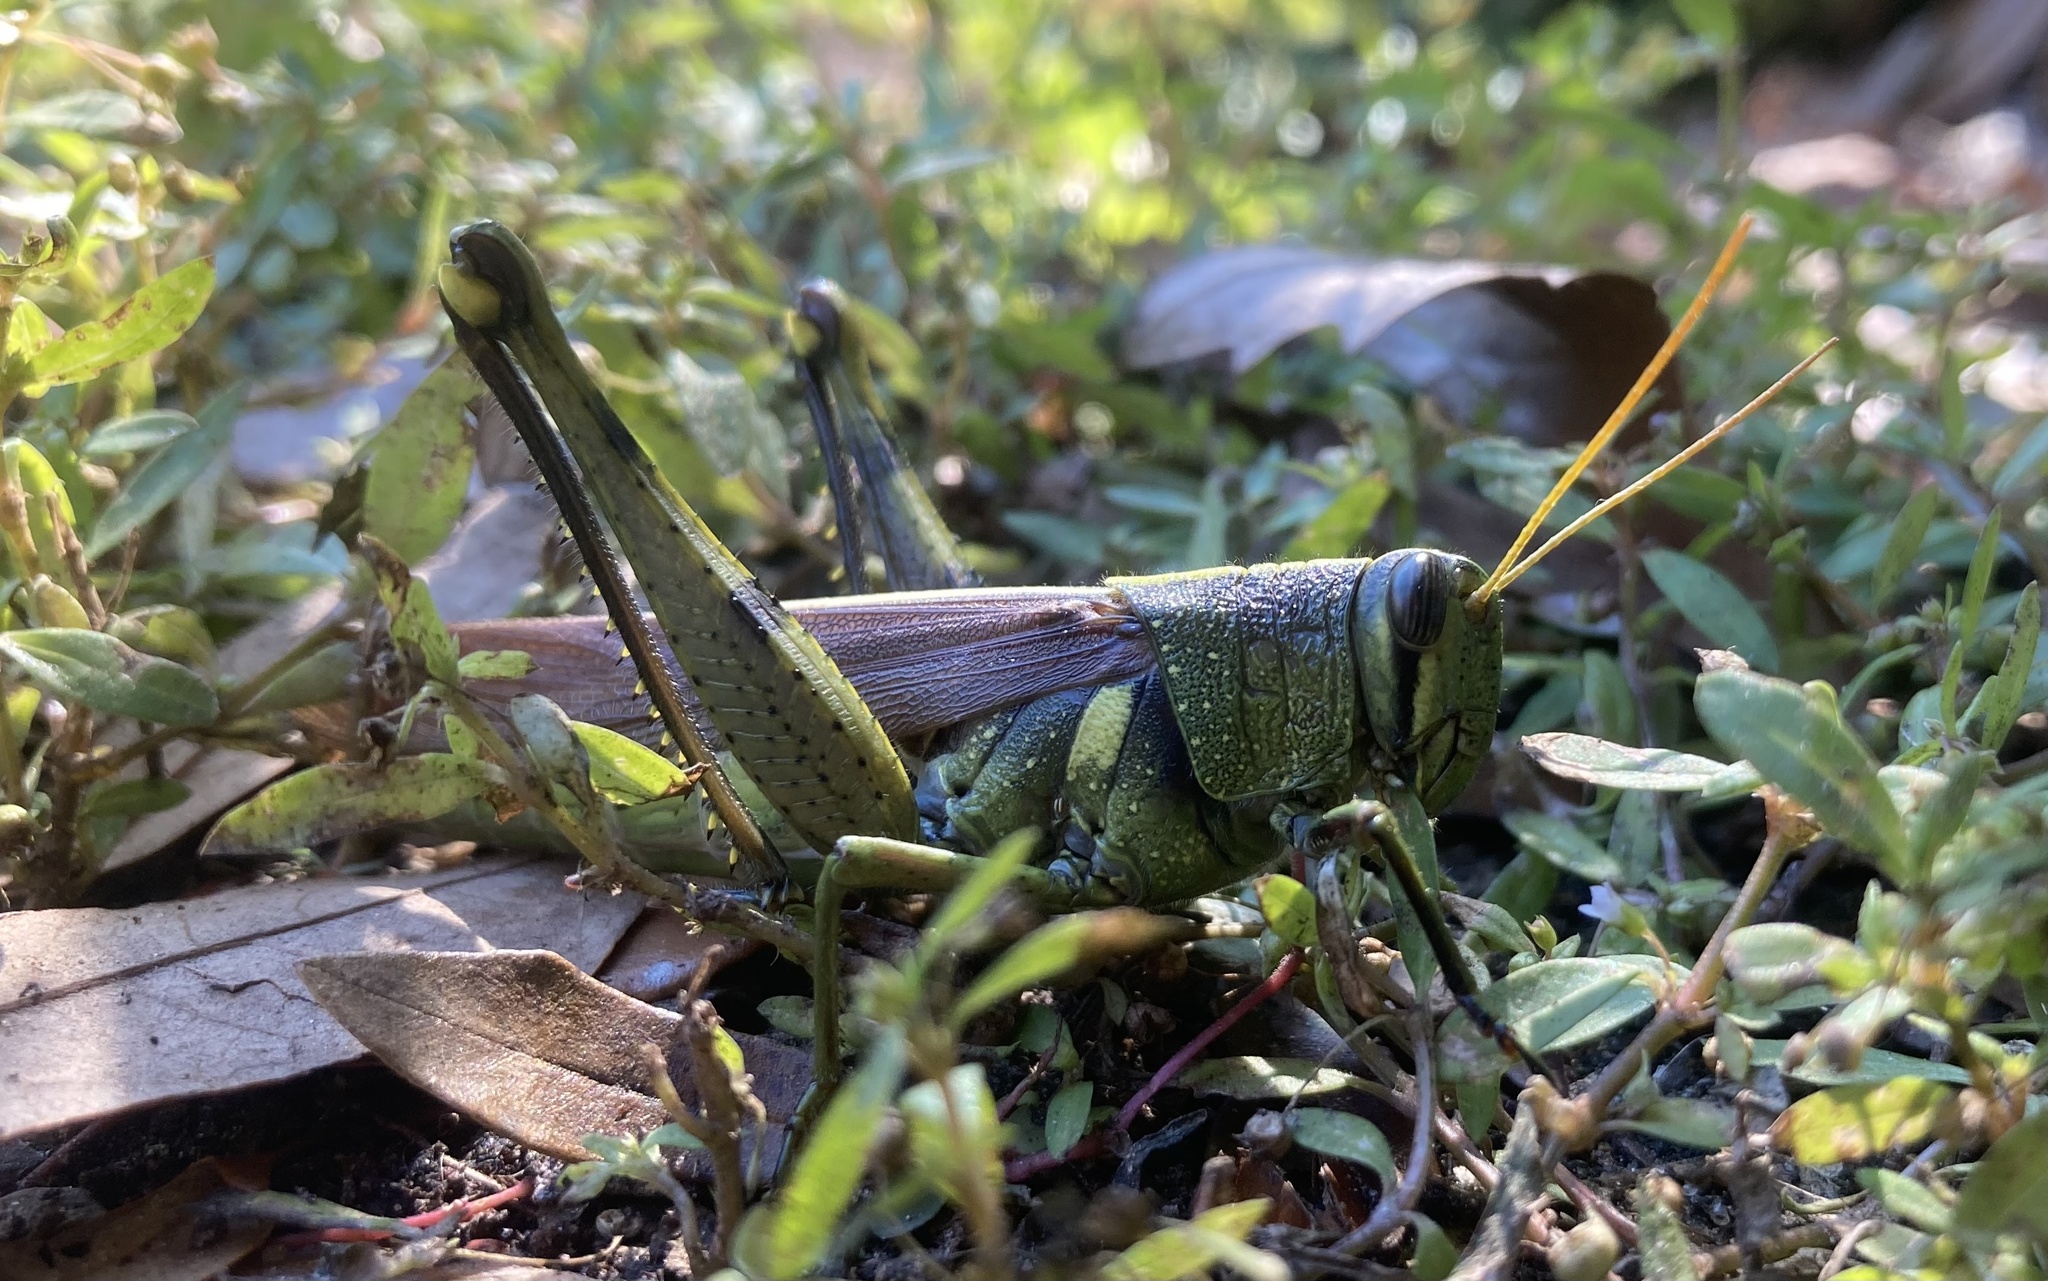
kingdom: Animalia
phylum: Arthropoda
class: Insecta
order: Orthoptera
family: Acrididae
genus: Schistocerca
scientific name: Schistocerca obscura
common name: Obscure bird grasshopper
